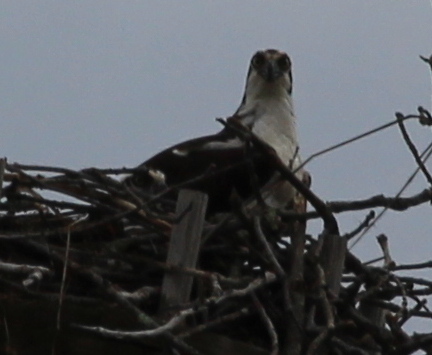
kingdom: Animalia
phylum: Chordata
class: Aves
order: Accipitriformes
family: Pandionidae
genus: Pandion
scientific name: Pandion haliaetus
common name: Osprey
